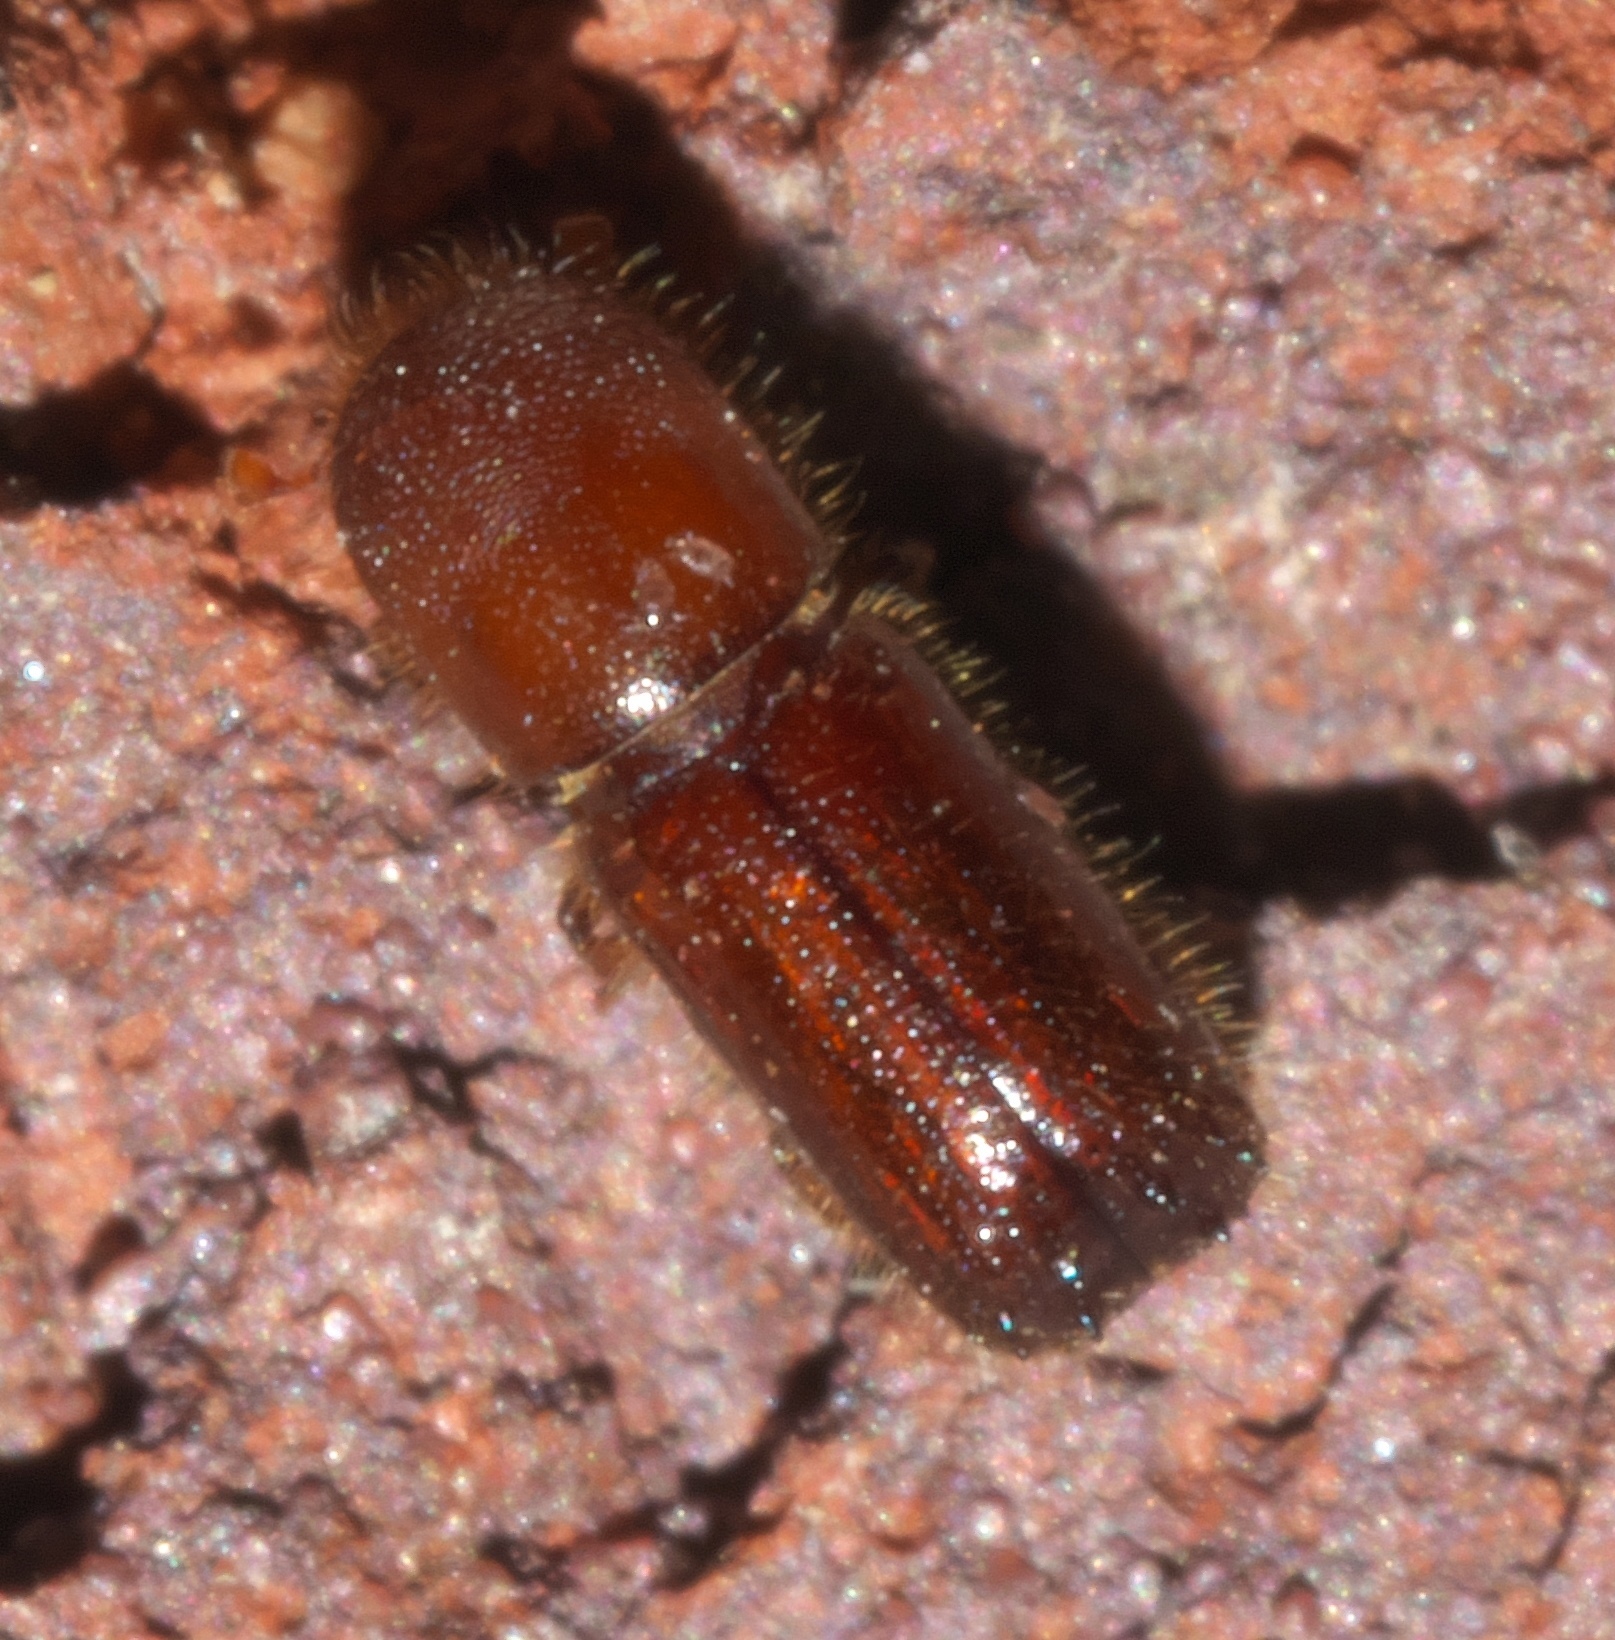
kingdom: Animalia
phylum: Arthropoda
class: Insecta
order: Coleoptera
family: Curculionidae
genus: Xyleborus
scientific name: Xyleborus celsus
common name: Weevil
